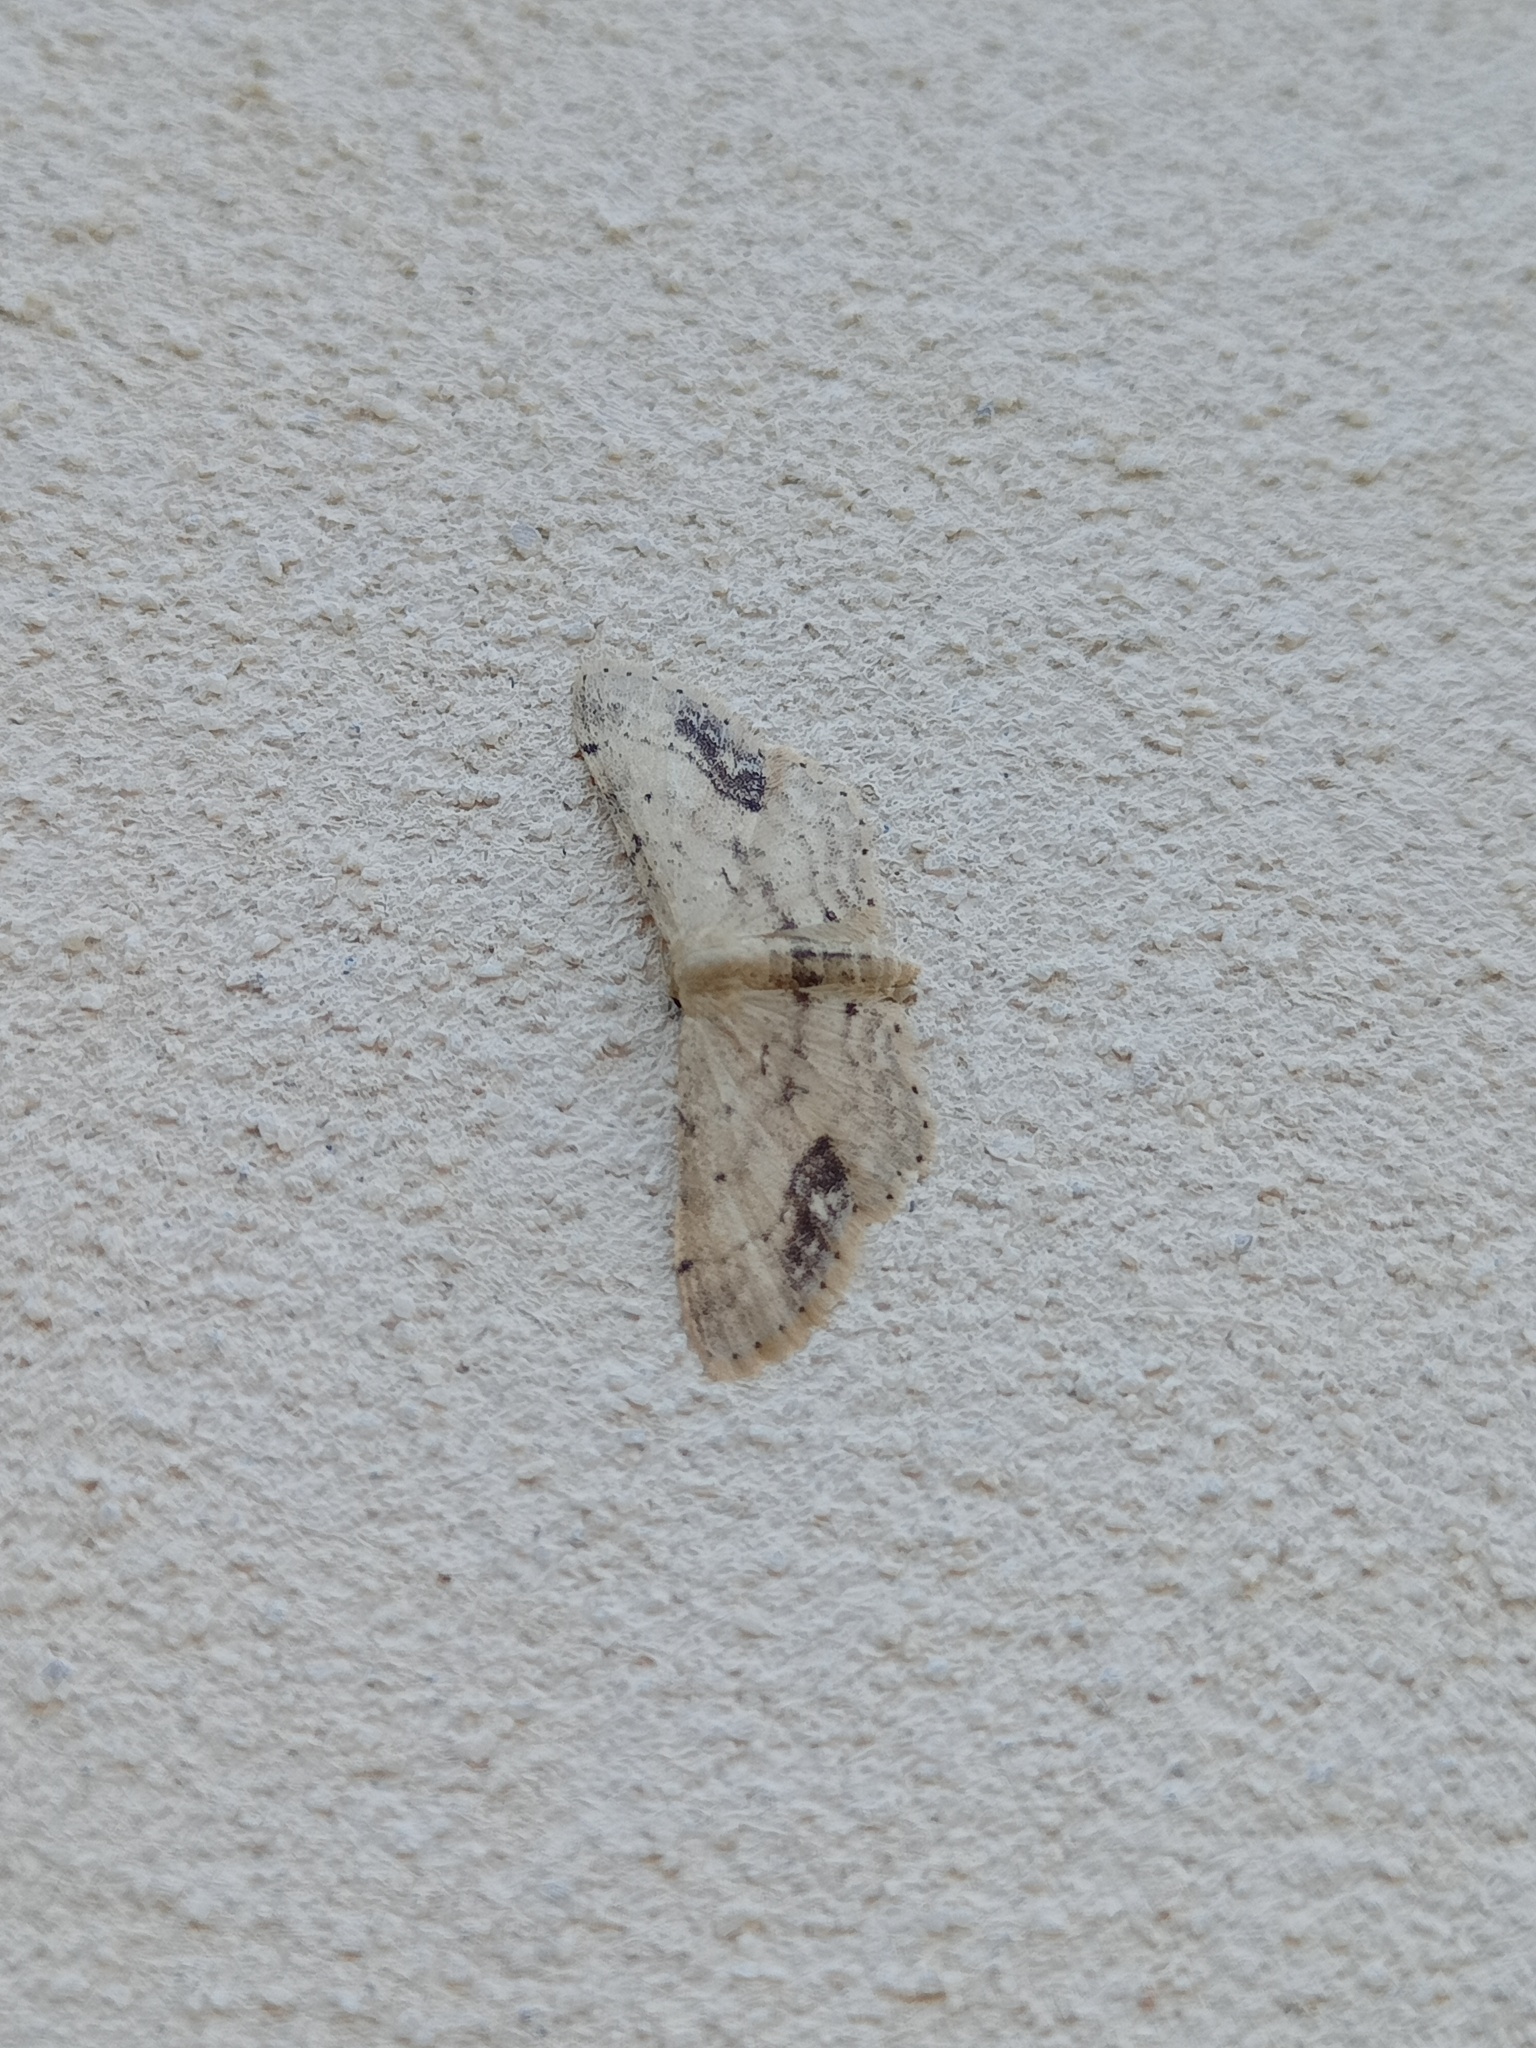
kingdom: Animalia
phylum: Arthropoda
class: Insecta
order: Lepidoptera
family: Geometridae
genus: Idaea
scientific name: Idaea dimidiata
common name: Single-dotted wave
